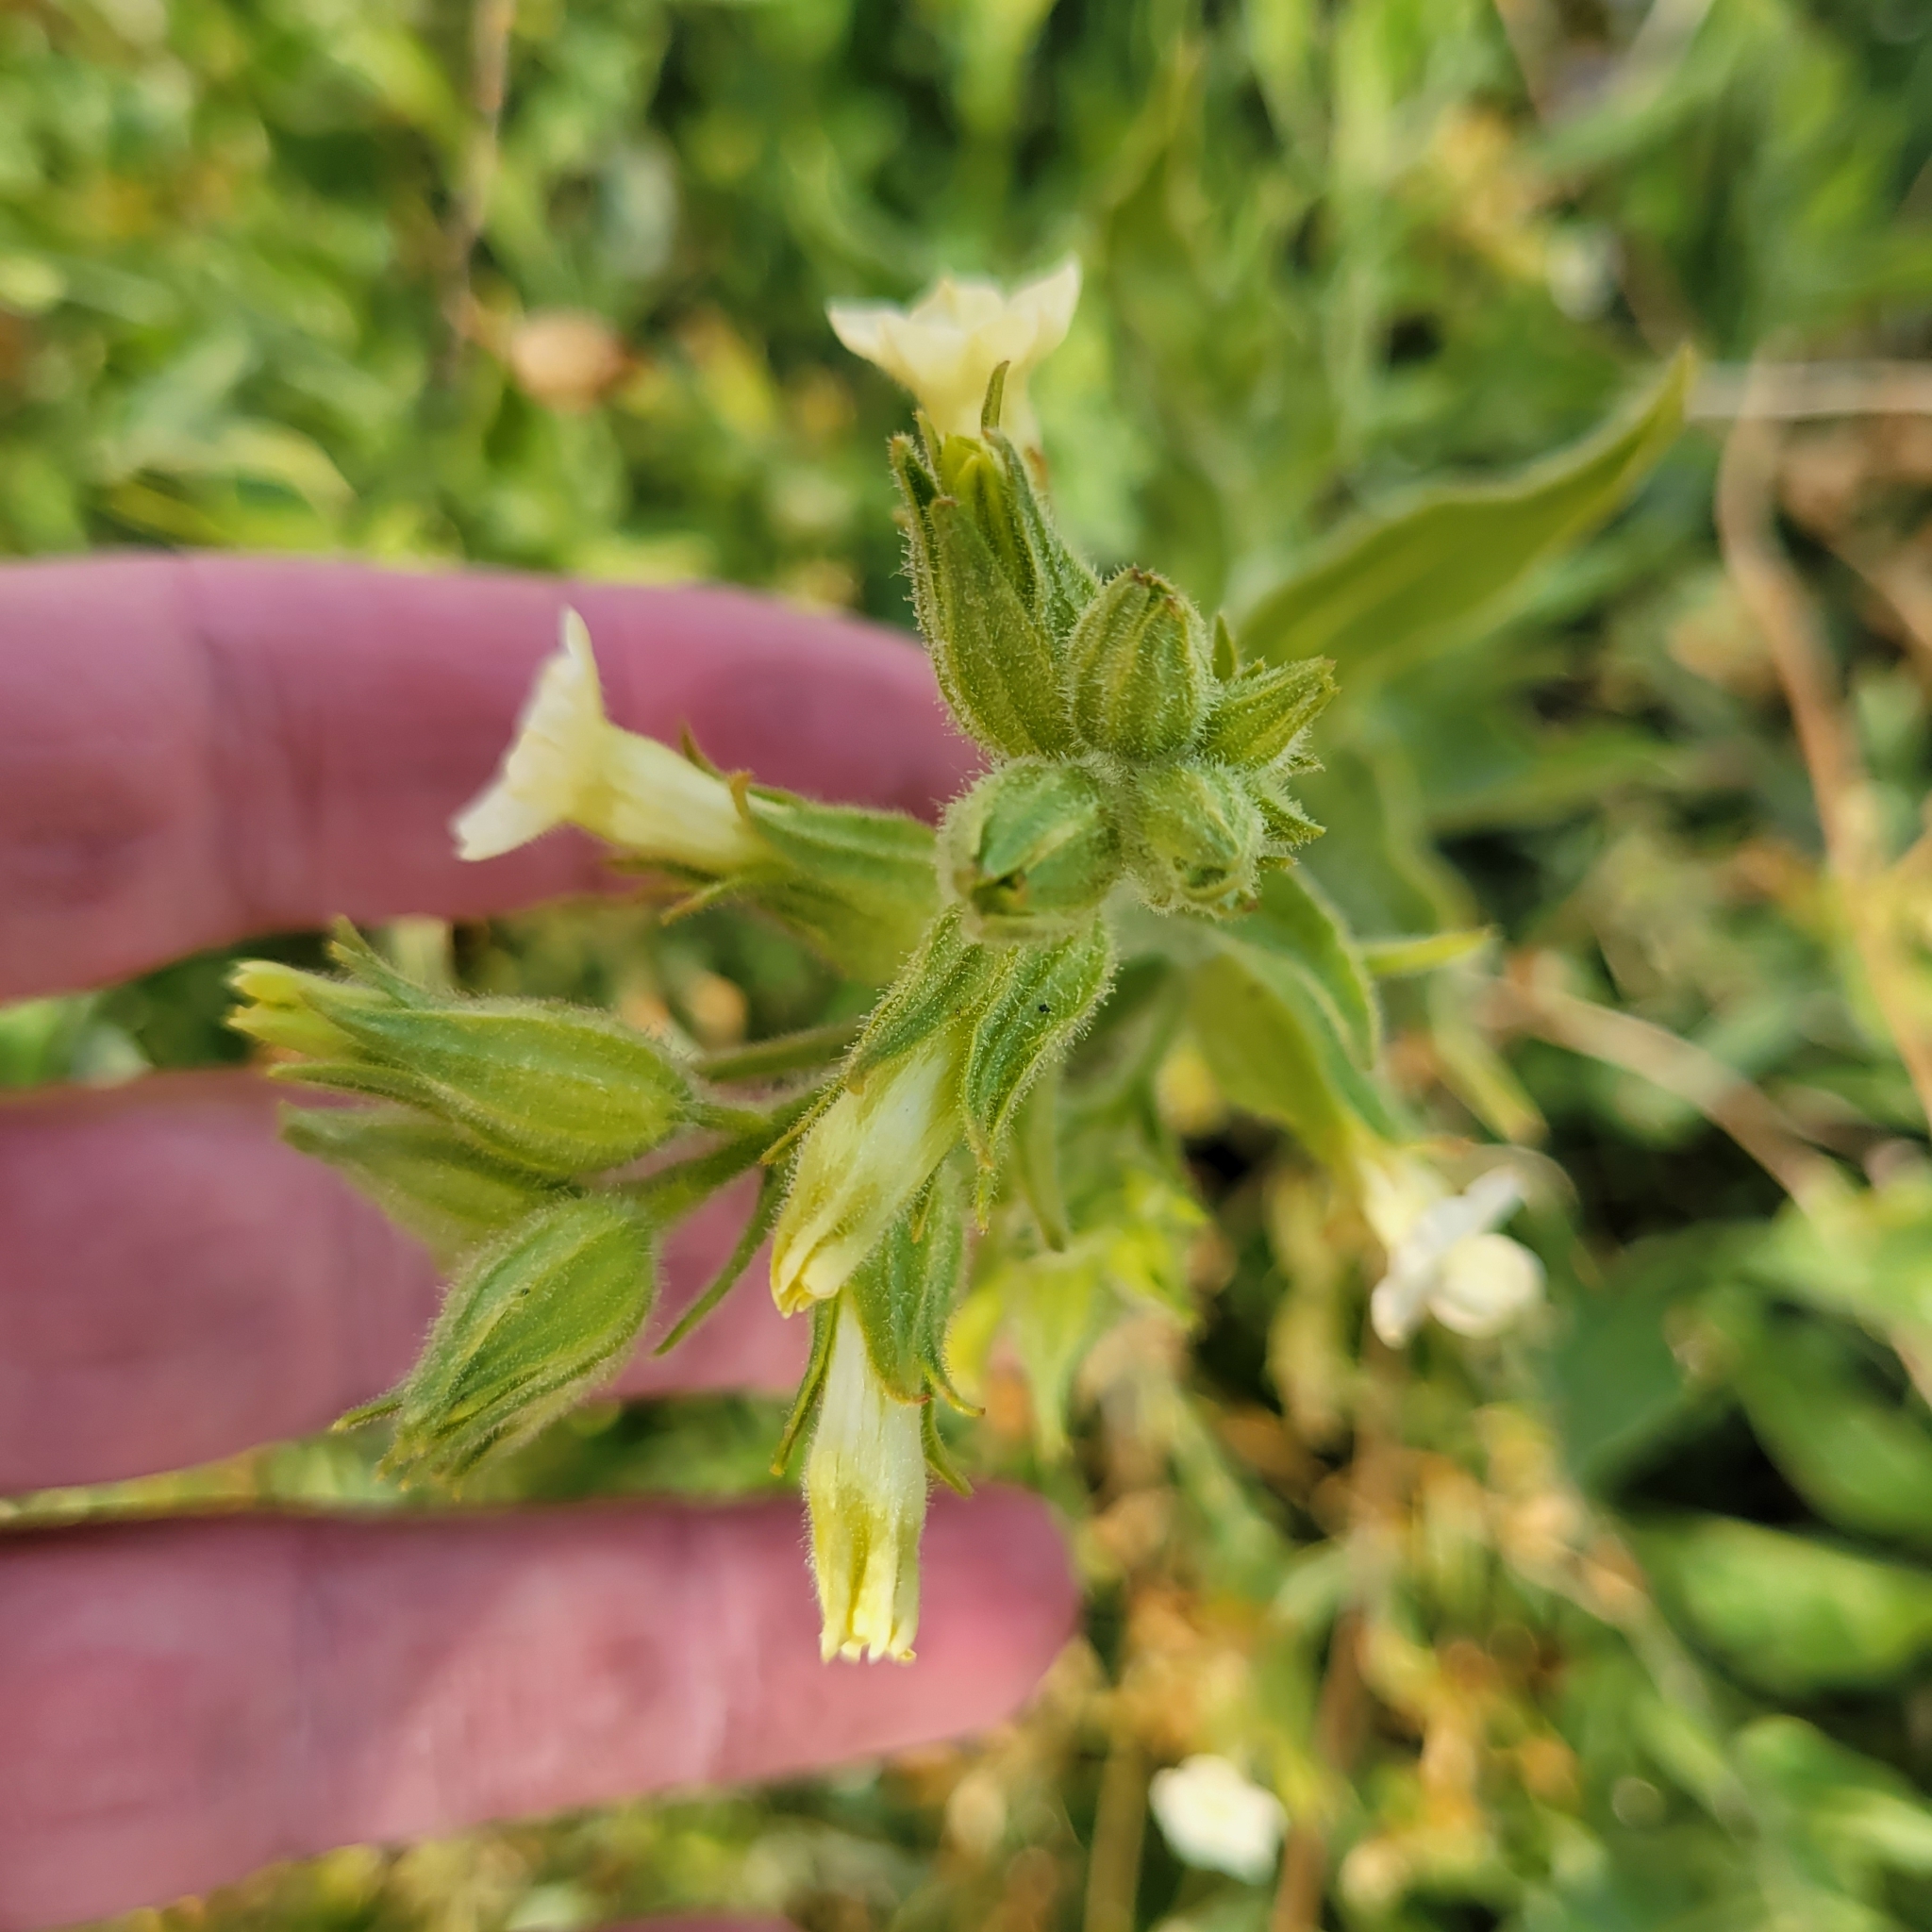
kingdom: Plantae
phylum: Tracheophyta
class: Magnoliopsida
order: Solanales
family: Solanaceae
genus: Nicotiana
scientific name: Nicotiana obtusifolia
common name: Desert tobacco
